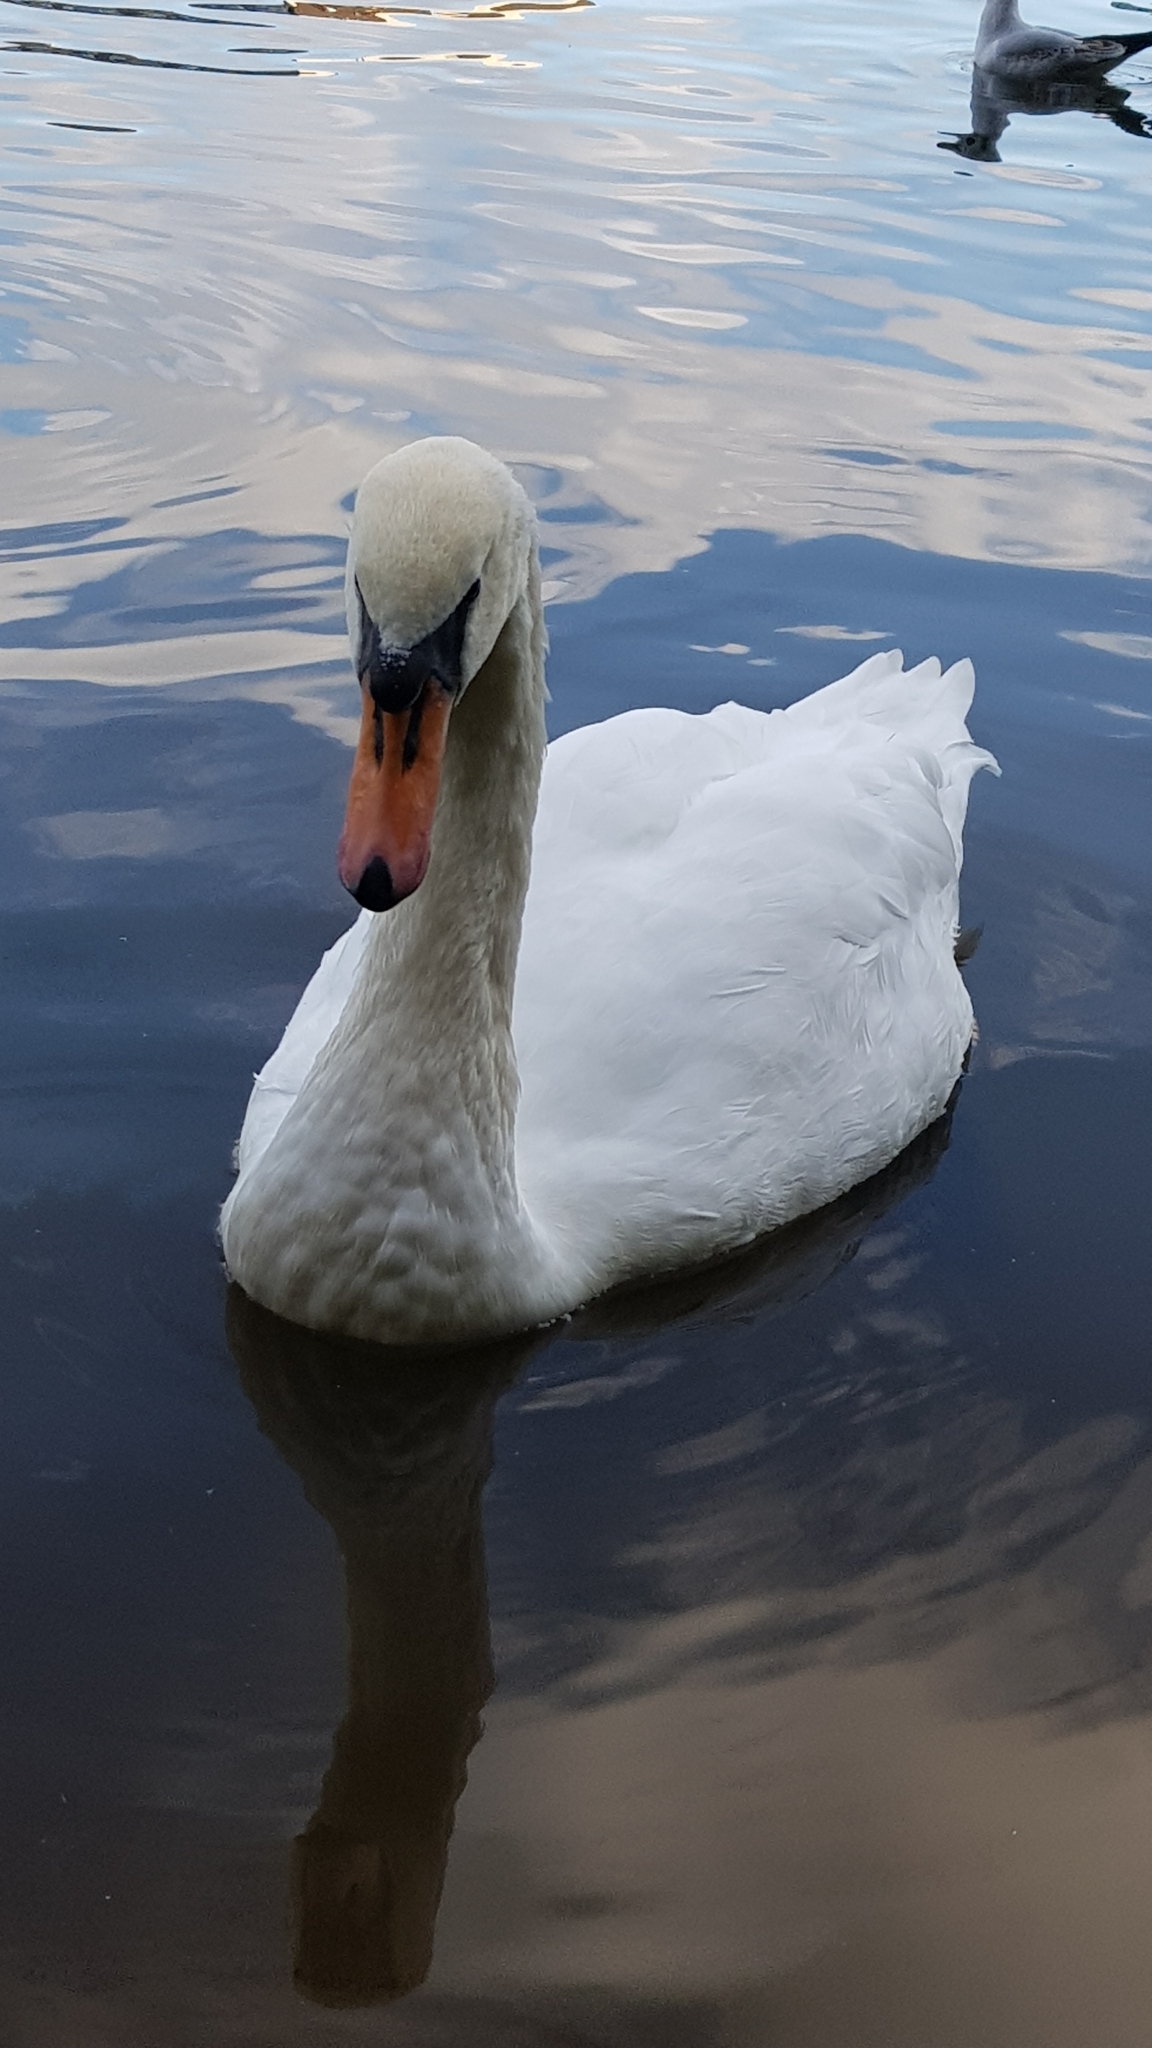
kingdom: Animalia
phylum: Chordata
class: Aves
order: Anseriformes
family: Anatidae
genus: Cygnus
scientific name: Cygnus olor
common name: Mute swan
